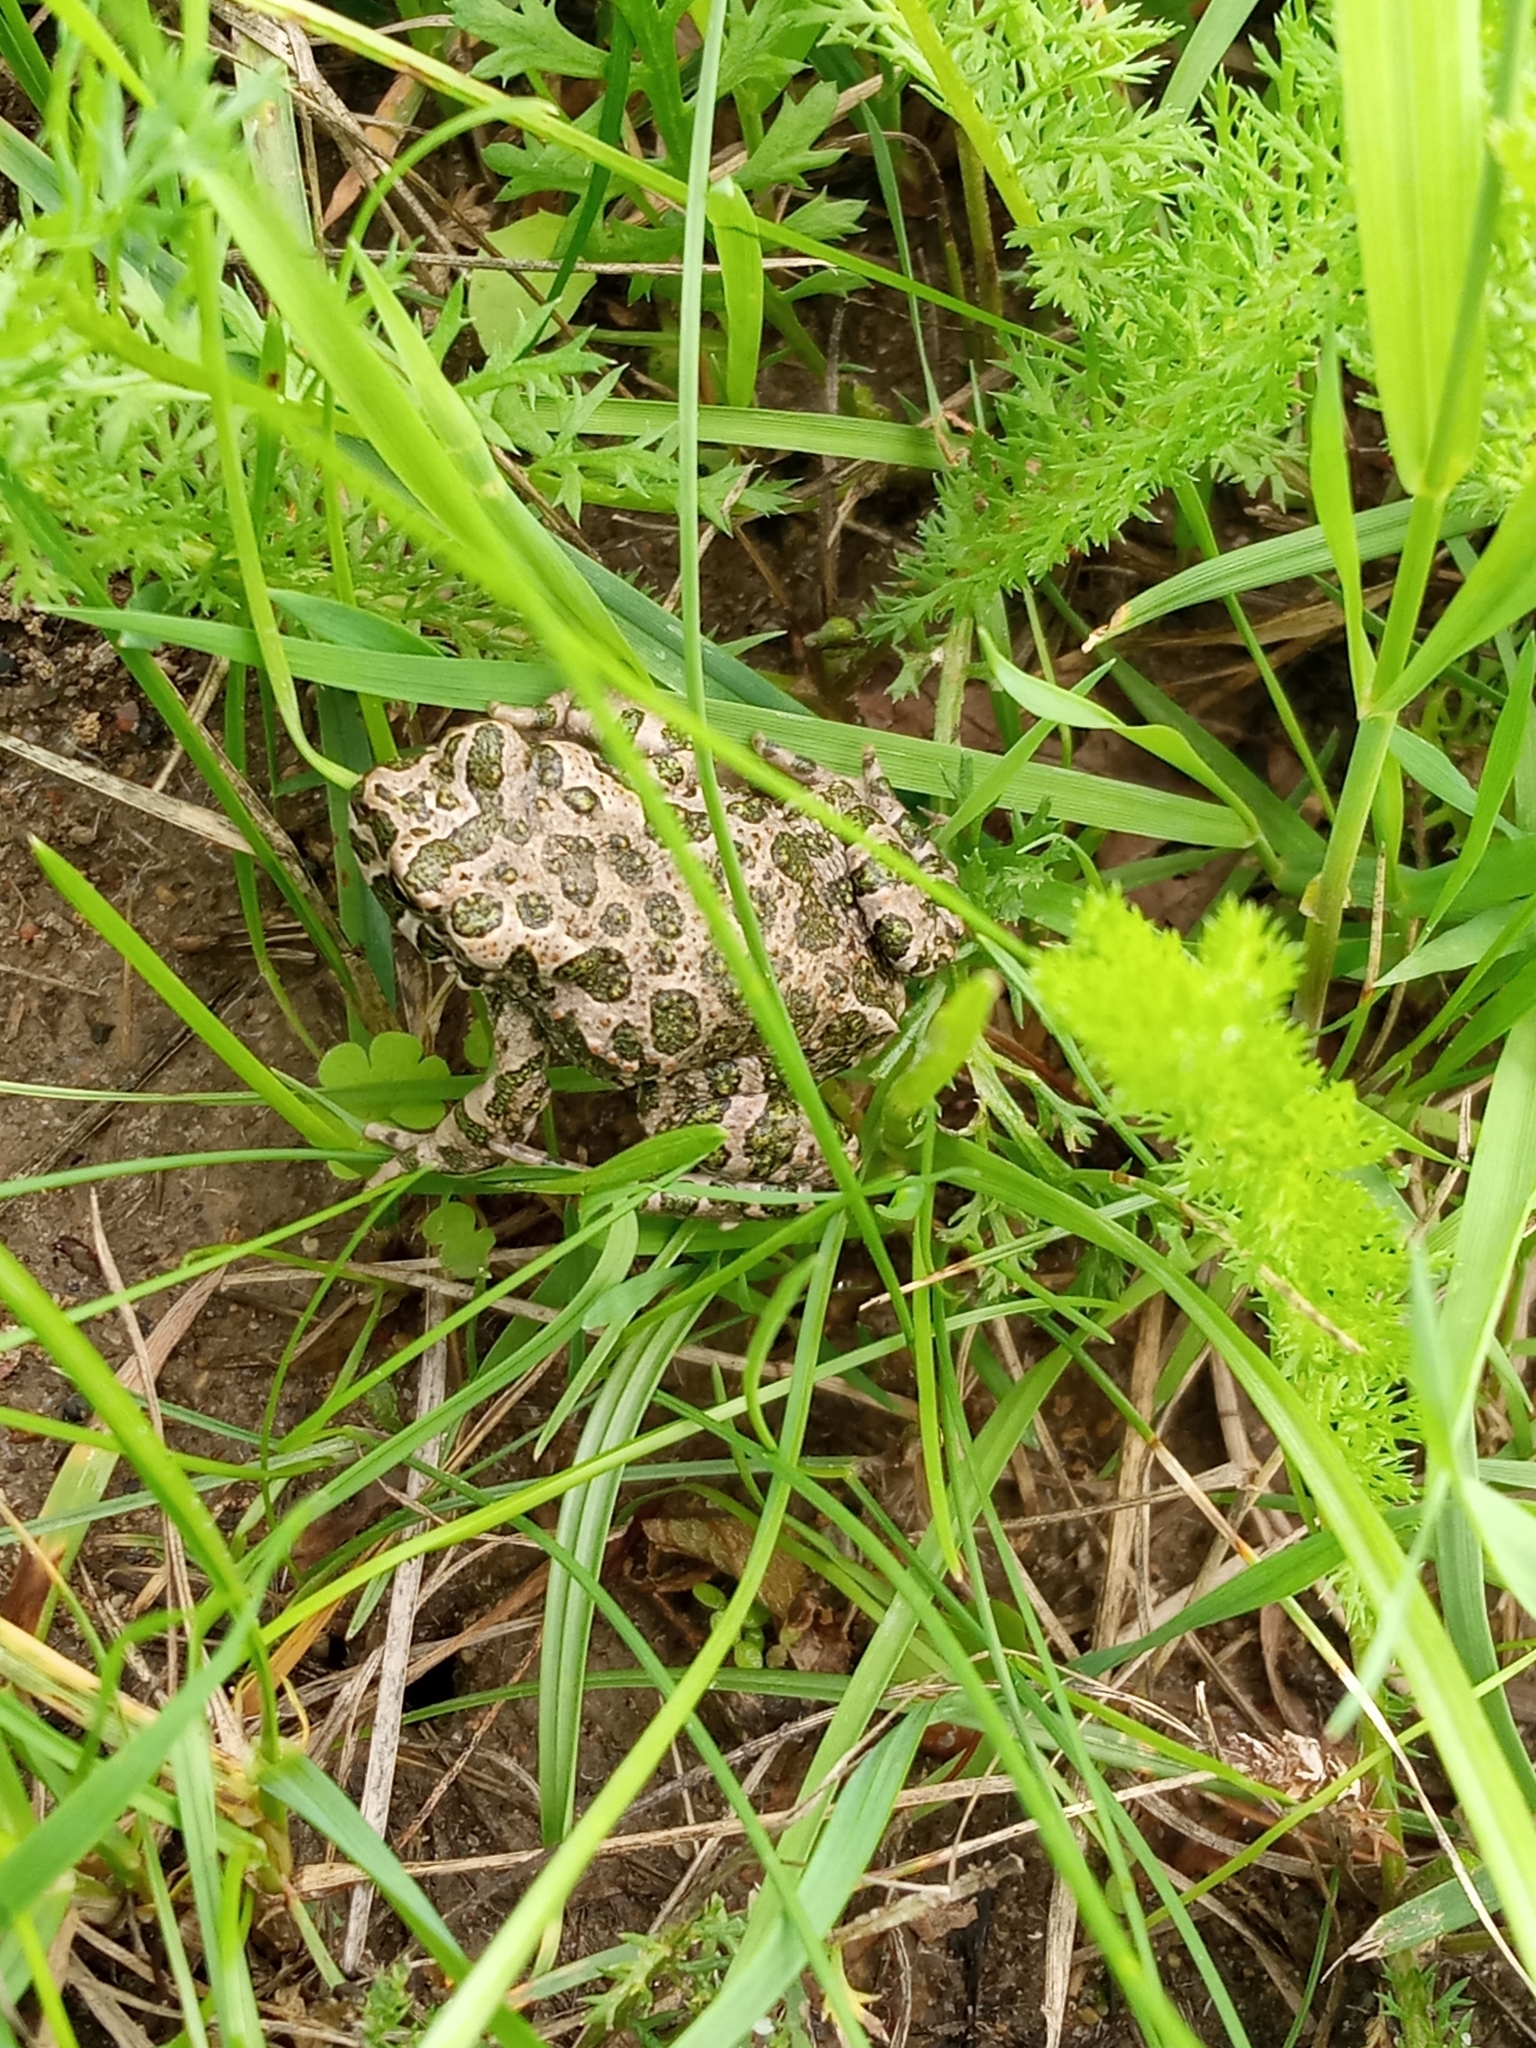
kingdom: Animalia
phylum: Chordata
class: Amphibia
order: Anura
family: Bufonidae
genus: Bufotes
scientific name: Bufotes viridis
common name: European green toad
